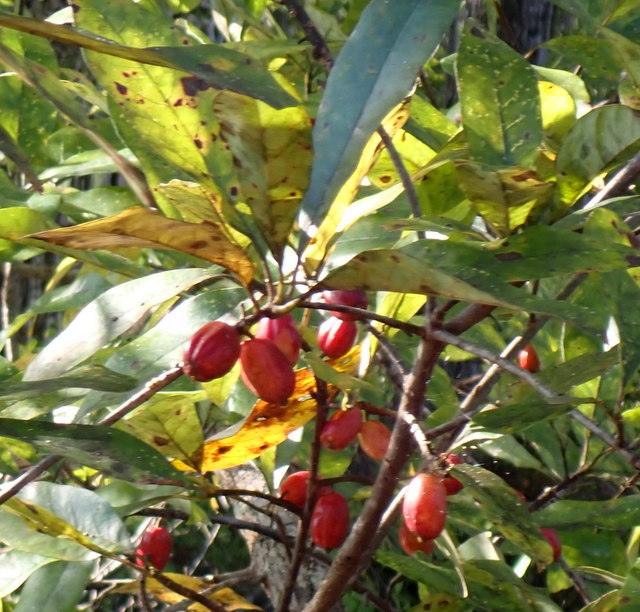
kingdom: Plantae
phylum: Tracheophyta
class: Magnoliopsida
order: Cornales
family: Nyssaceae
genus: Nyssa
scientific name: Nyssa ogeche
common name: Ogeechee tupelo
